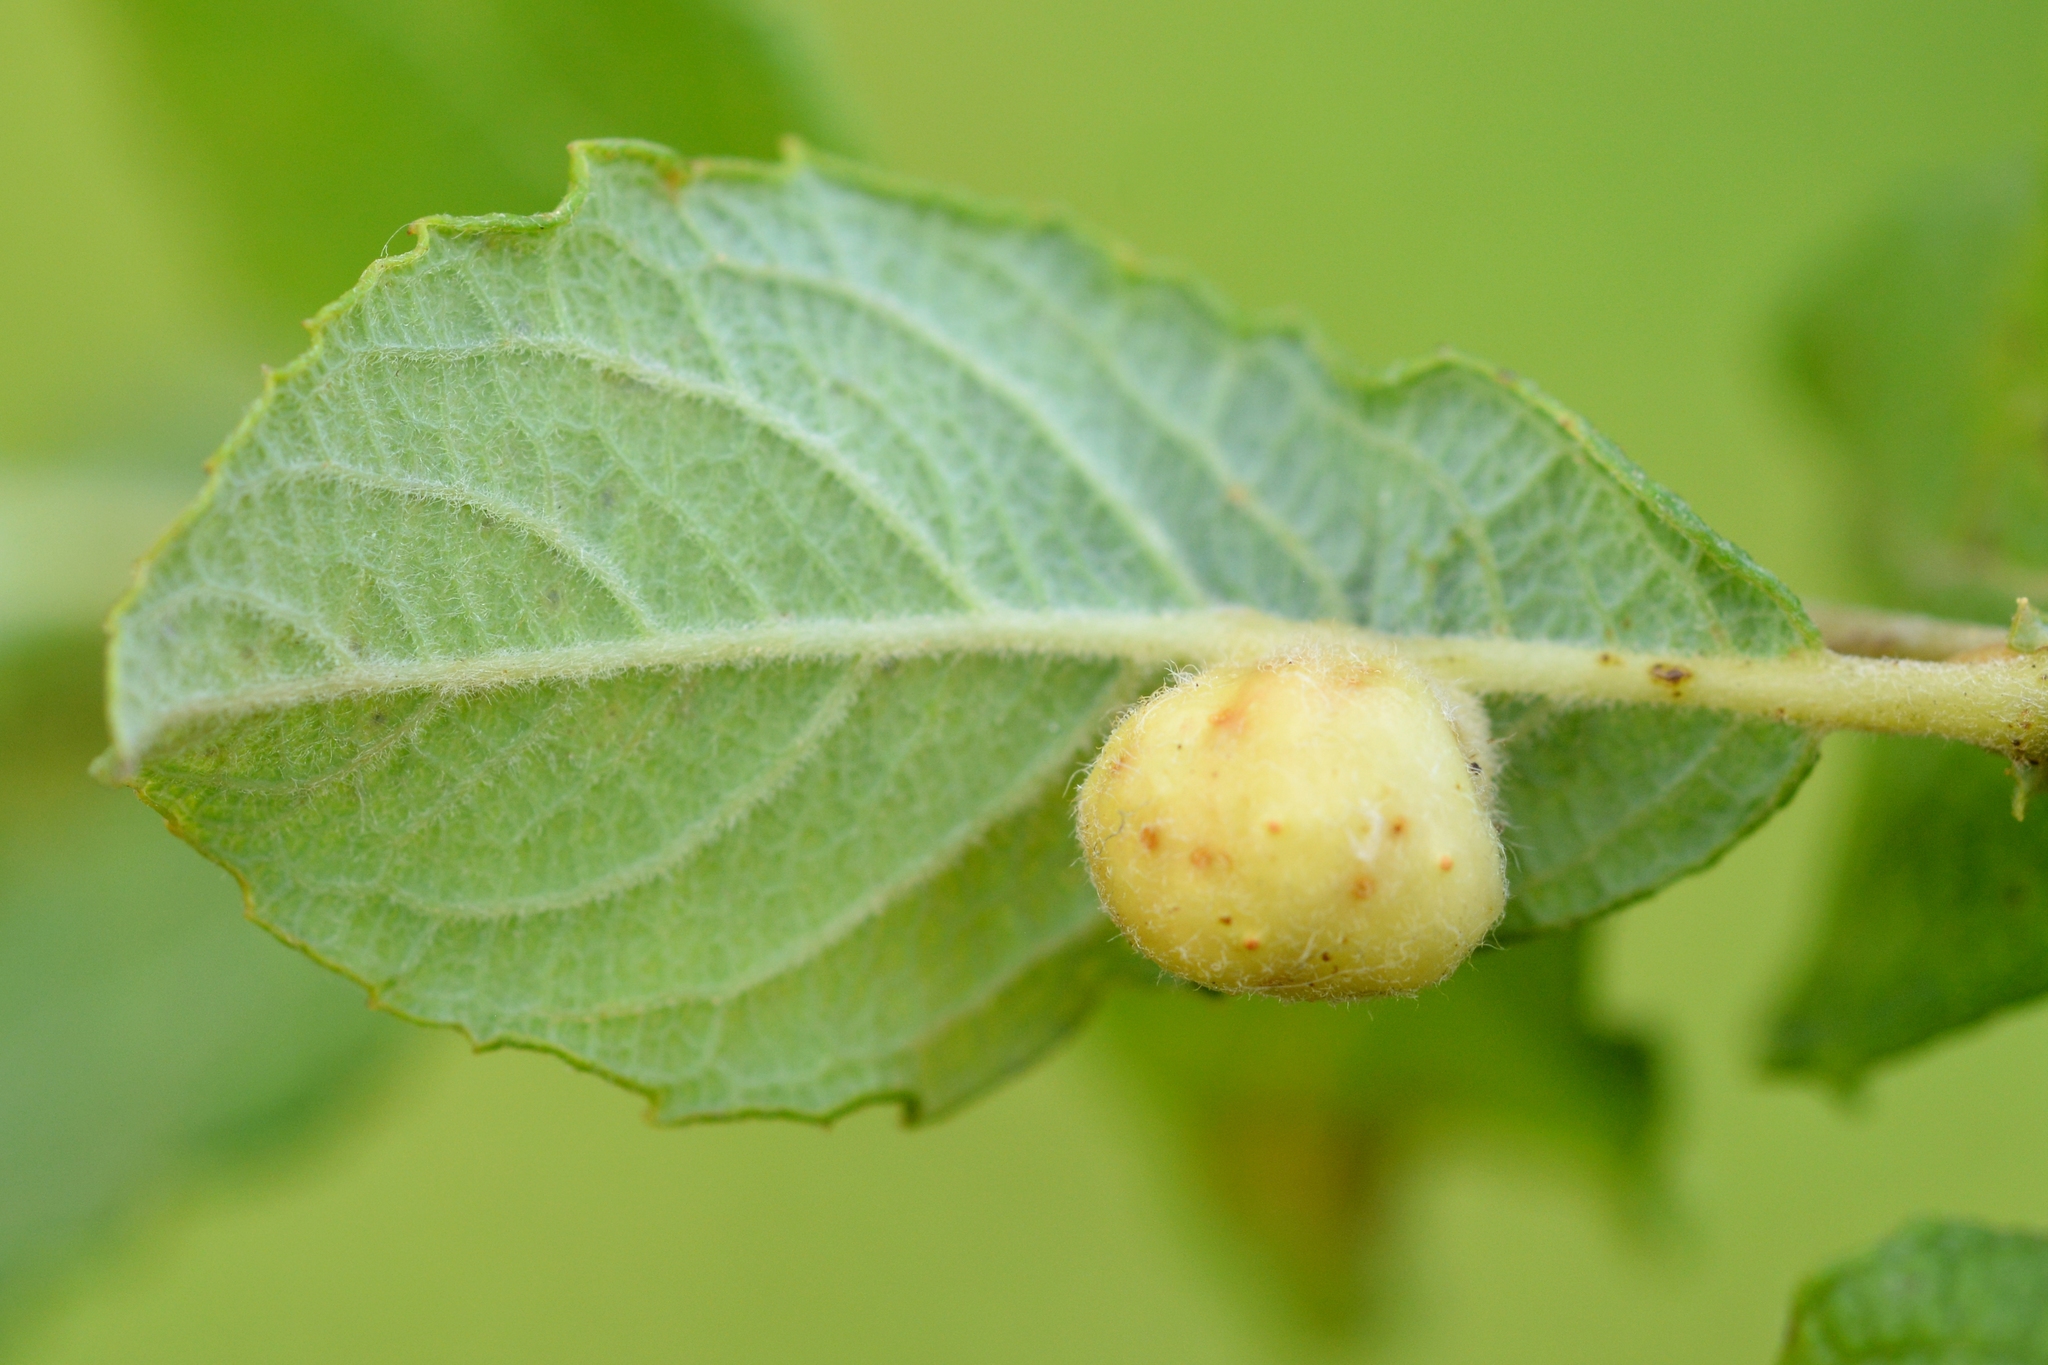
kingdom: Animalia
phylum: Arthropoda
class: Insecta
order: Hymenoptera
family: Tenthredinidae
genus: Pontania
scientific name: Pontania pedunculi
